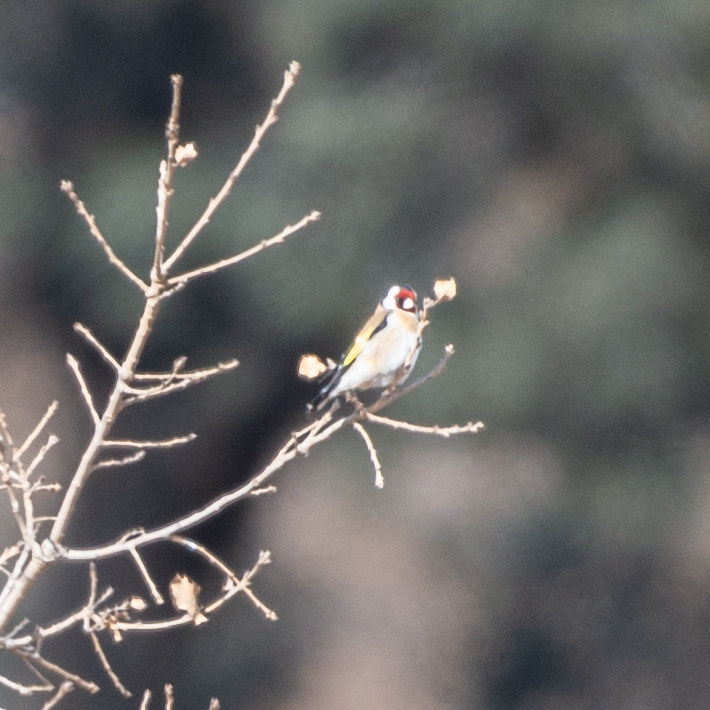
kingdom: Animalia
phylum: Chordata
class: Aves
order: Passeriformes
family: Fringillidae
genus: Carduelis
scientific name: Carduelis carduelis
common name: European goldfinch
